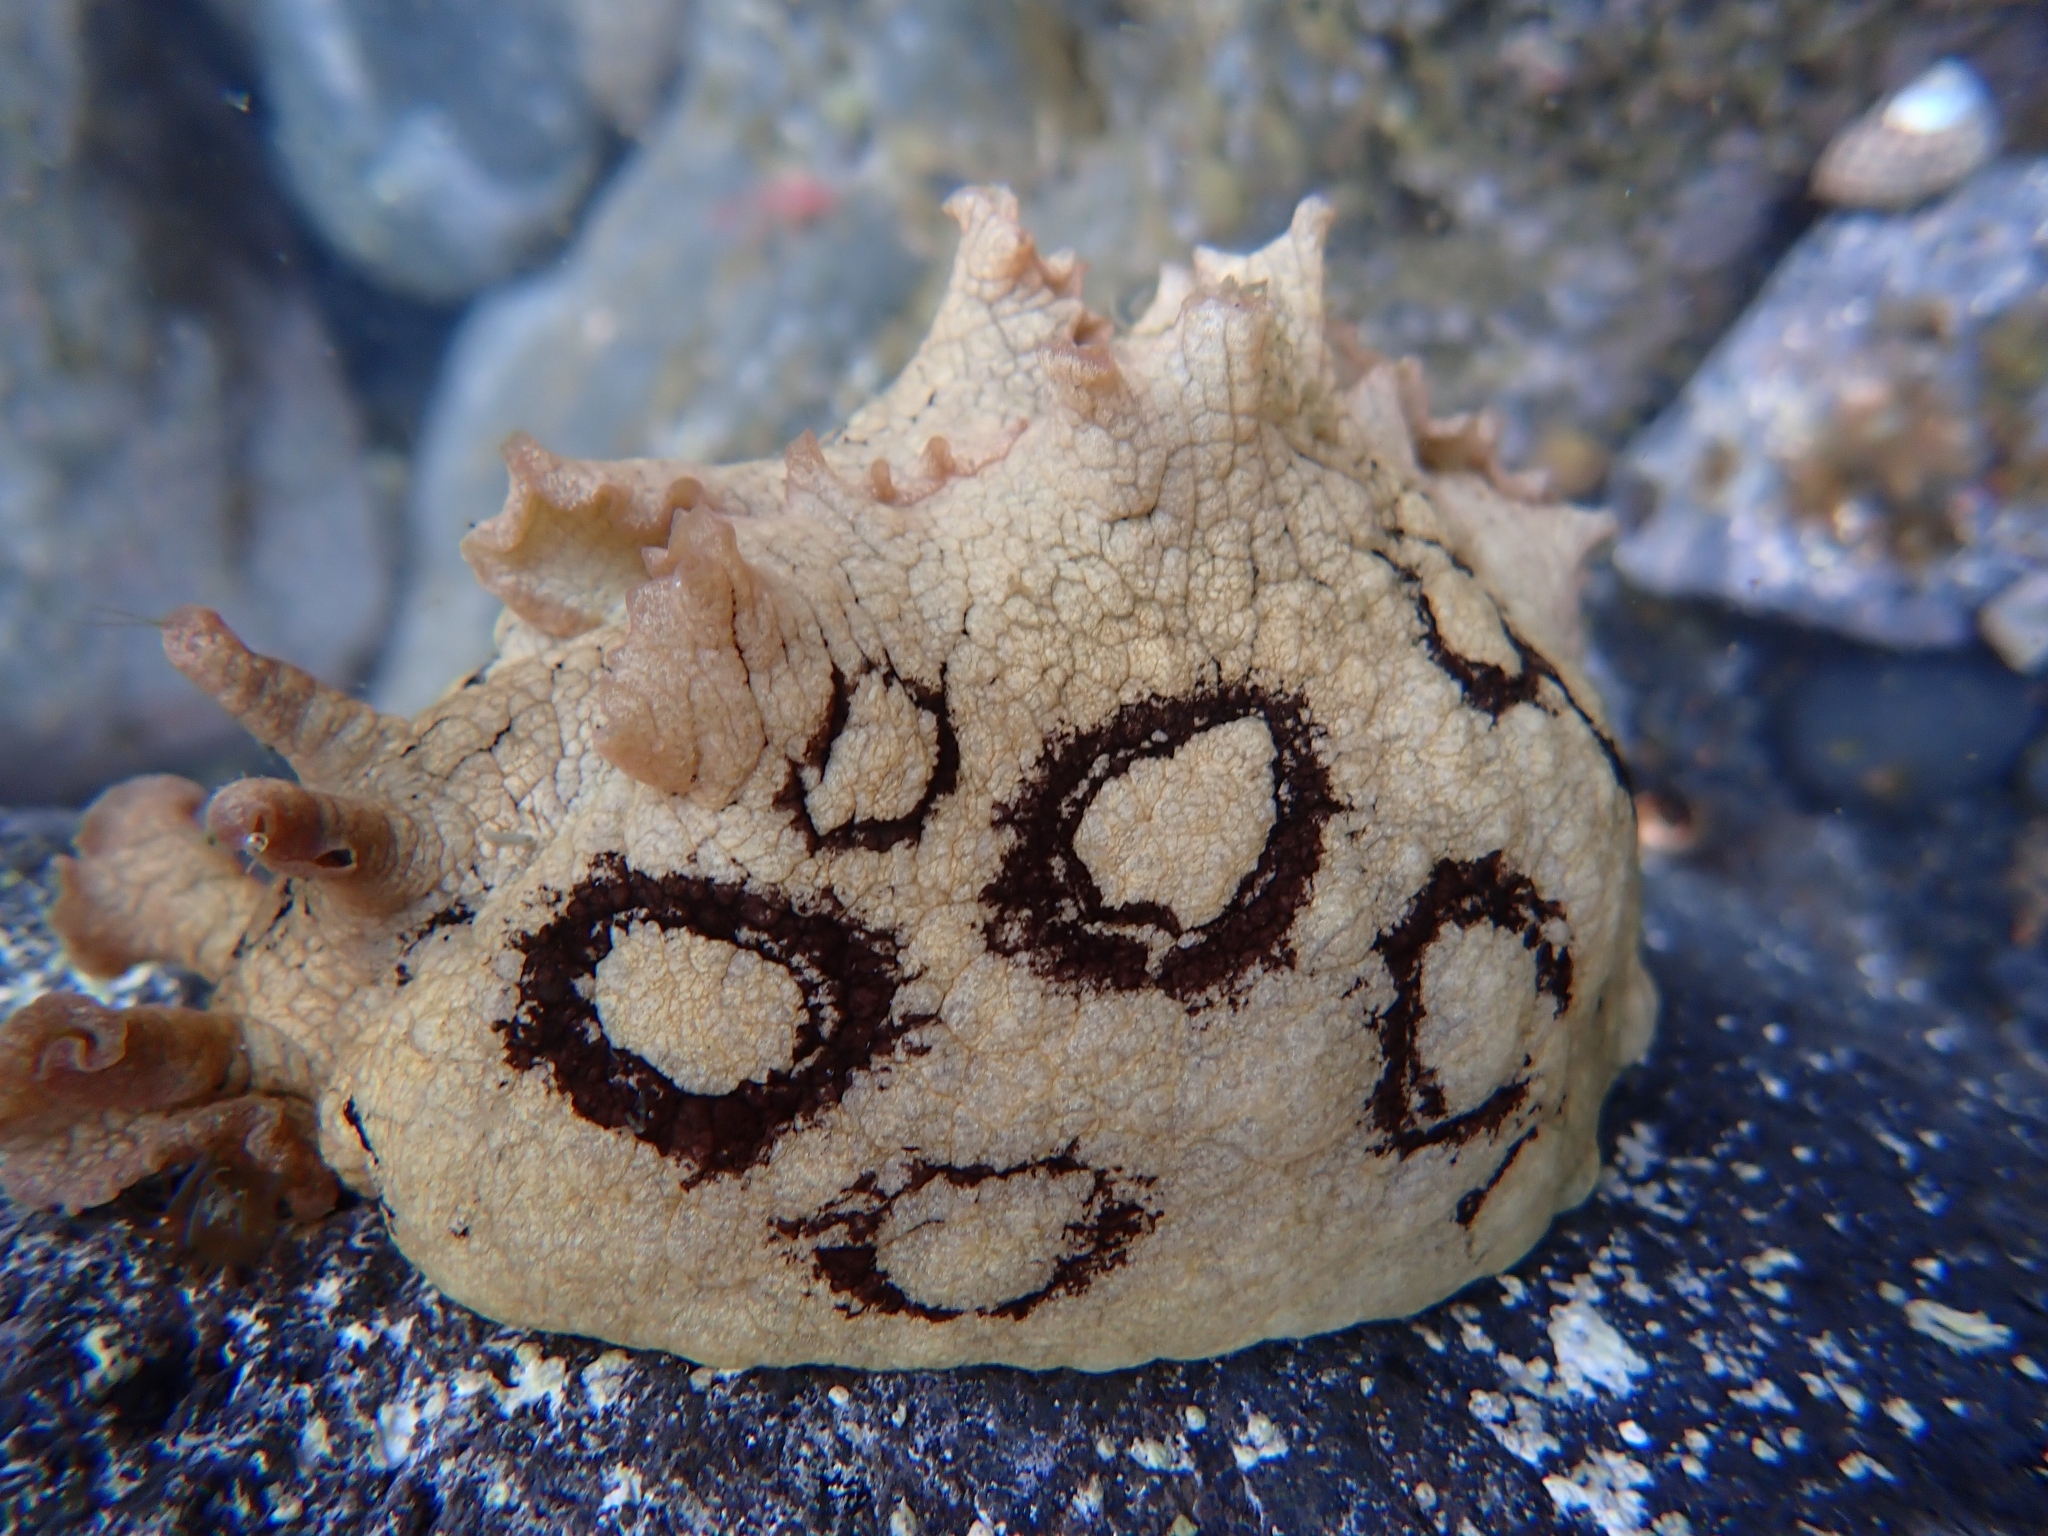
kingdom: Animalia
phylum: Mollusca
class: Gastropoda
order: Aplysiida
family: Aplysiidae
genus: Aplysia
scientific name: Aplysia dactylomela
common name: Large-spotted sea hare
